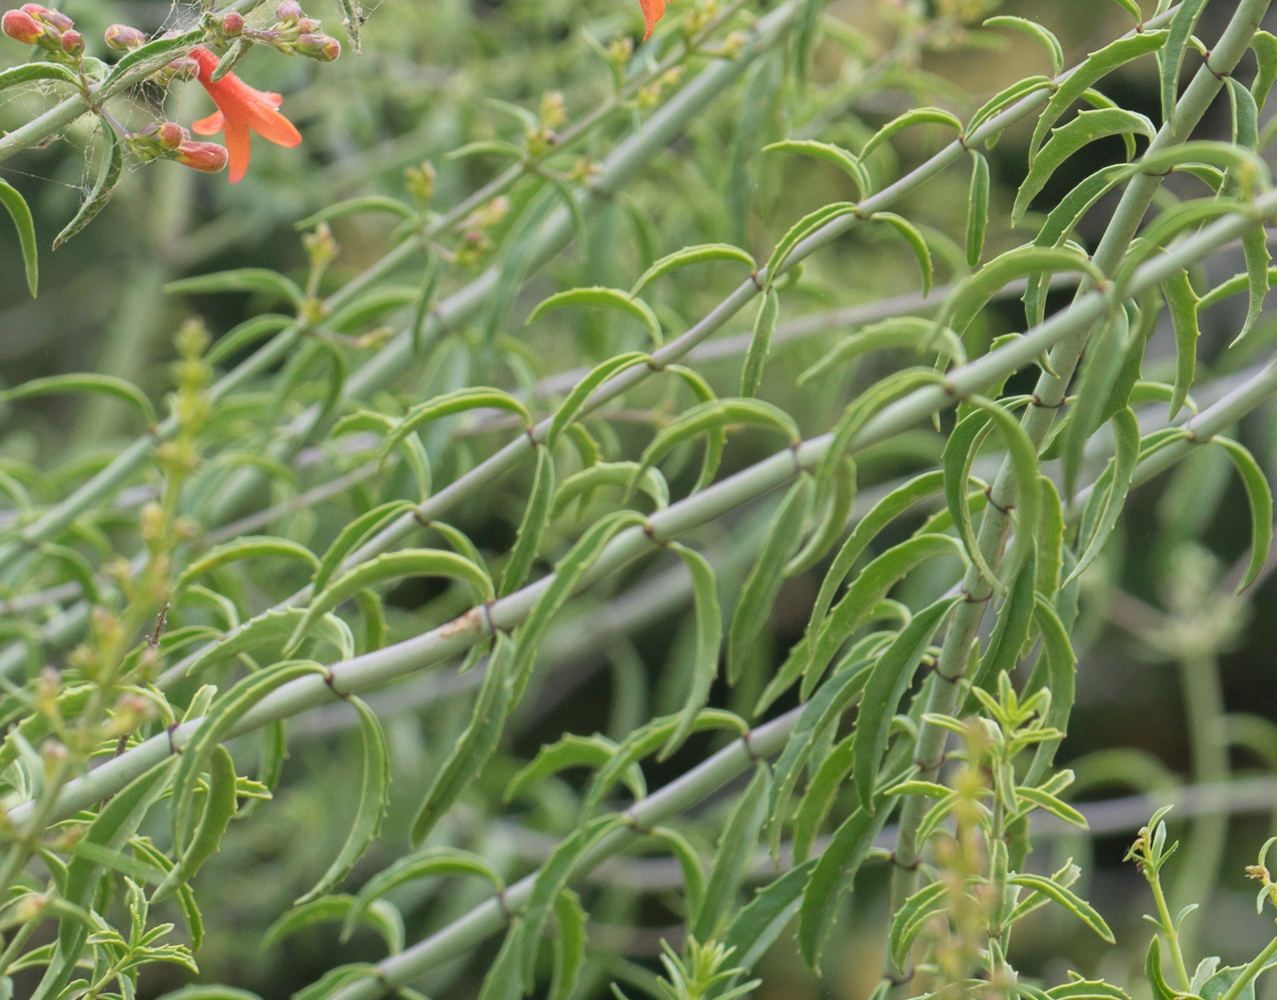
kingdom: Plantae
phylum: Tracheophyta
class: Magnoliopsida
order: Lamiales
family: Plantaginaceae
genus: Keckiella
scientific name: Keckiella ternata
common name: Scarlet keckiella
